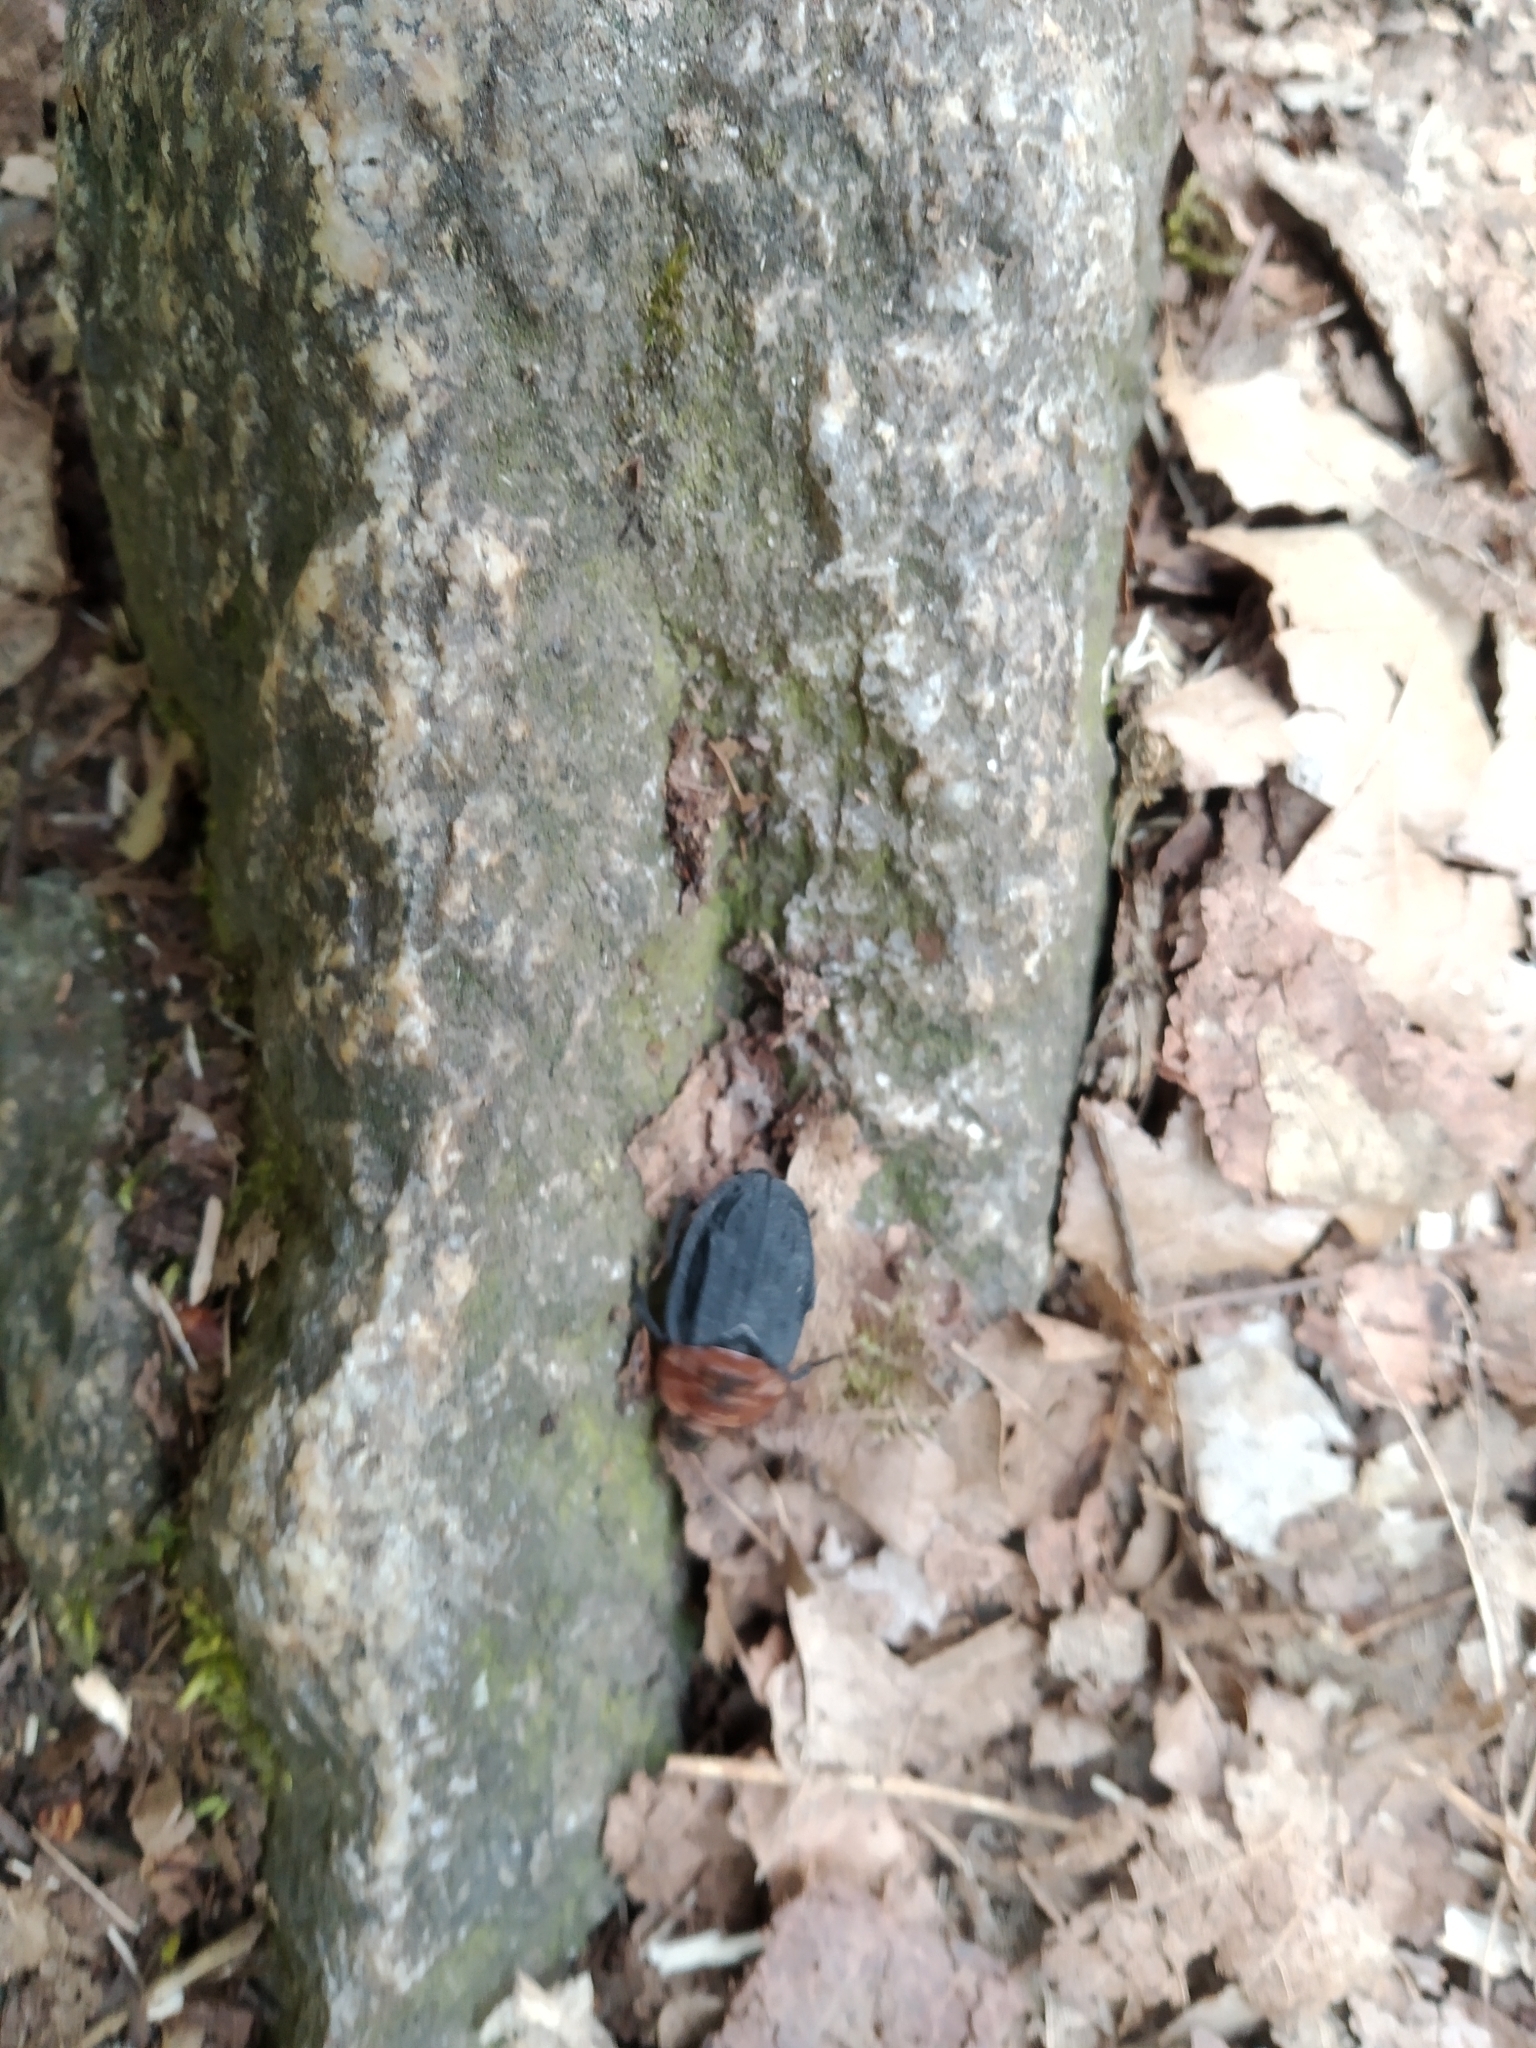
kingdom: Animalia
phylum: Arthropoda
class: Insecta
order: Coleoptera
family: Staphylinidae
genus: Oiceoptoma
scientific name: Oiceoptoma thoracicum
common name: Red-breasted carrion beetle
